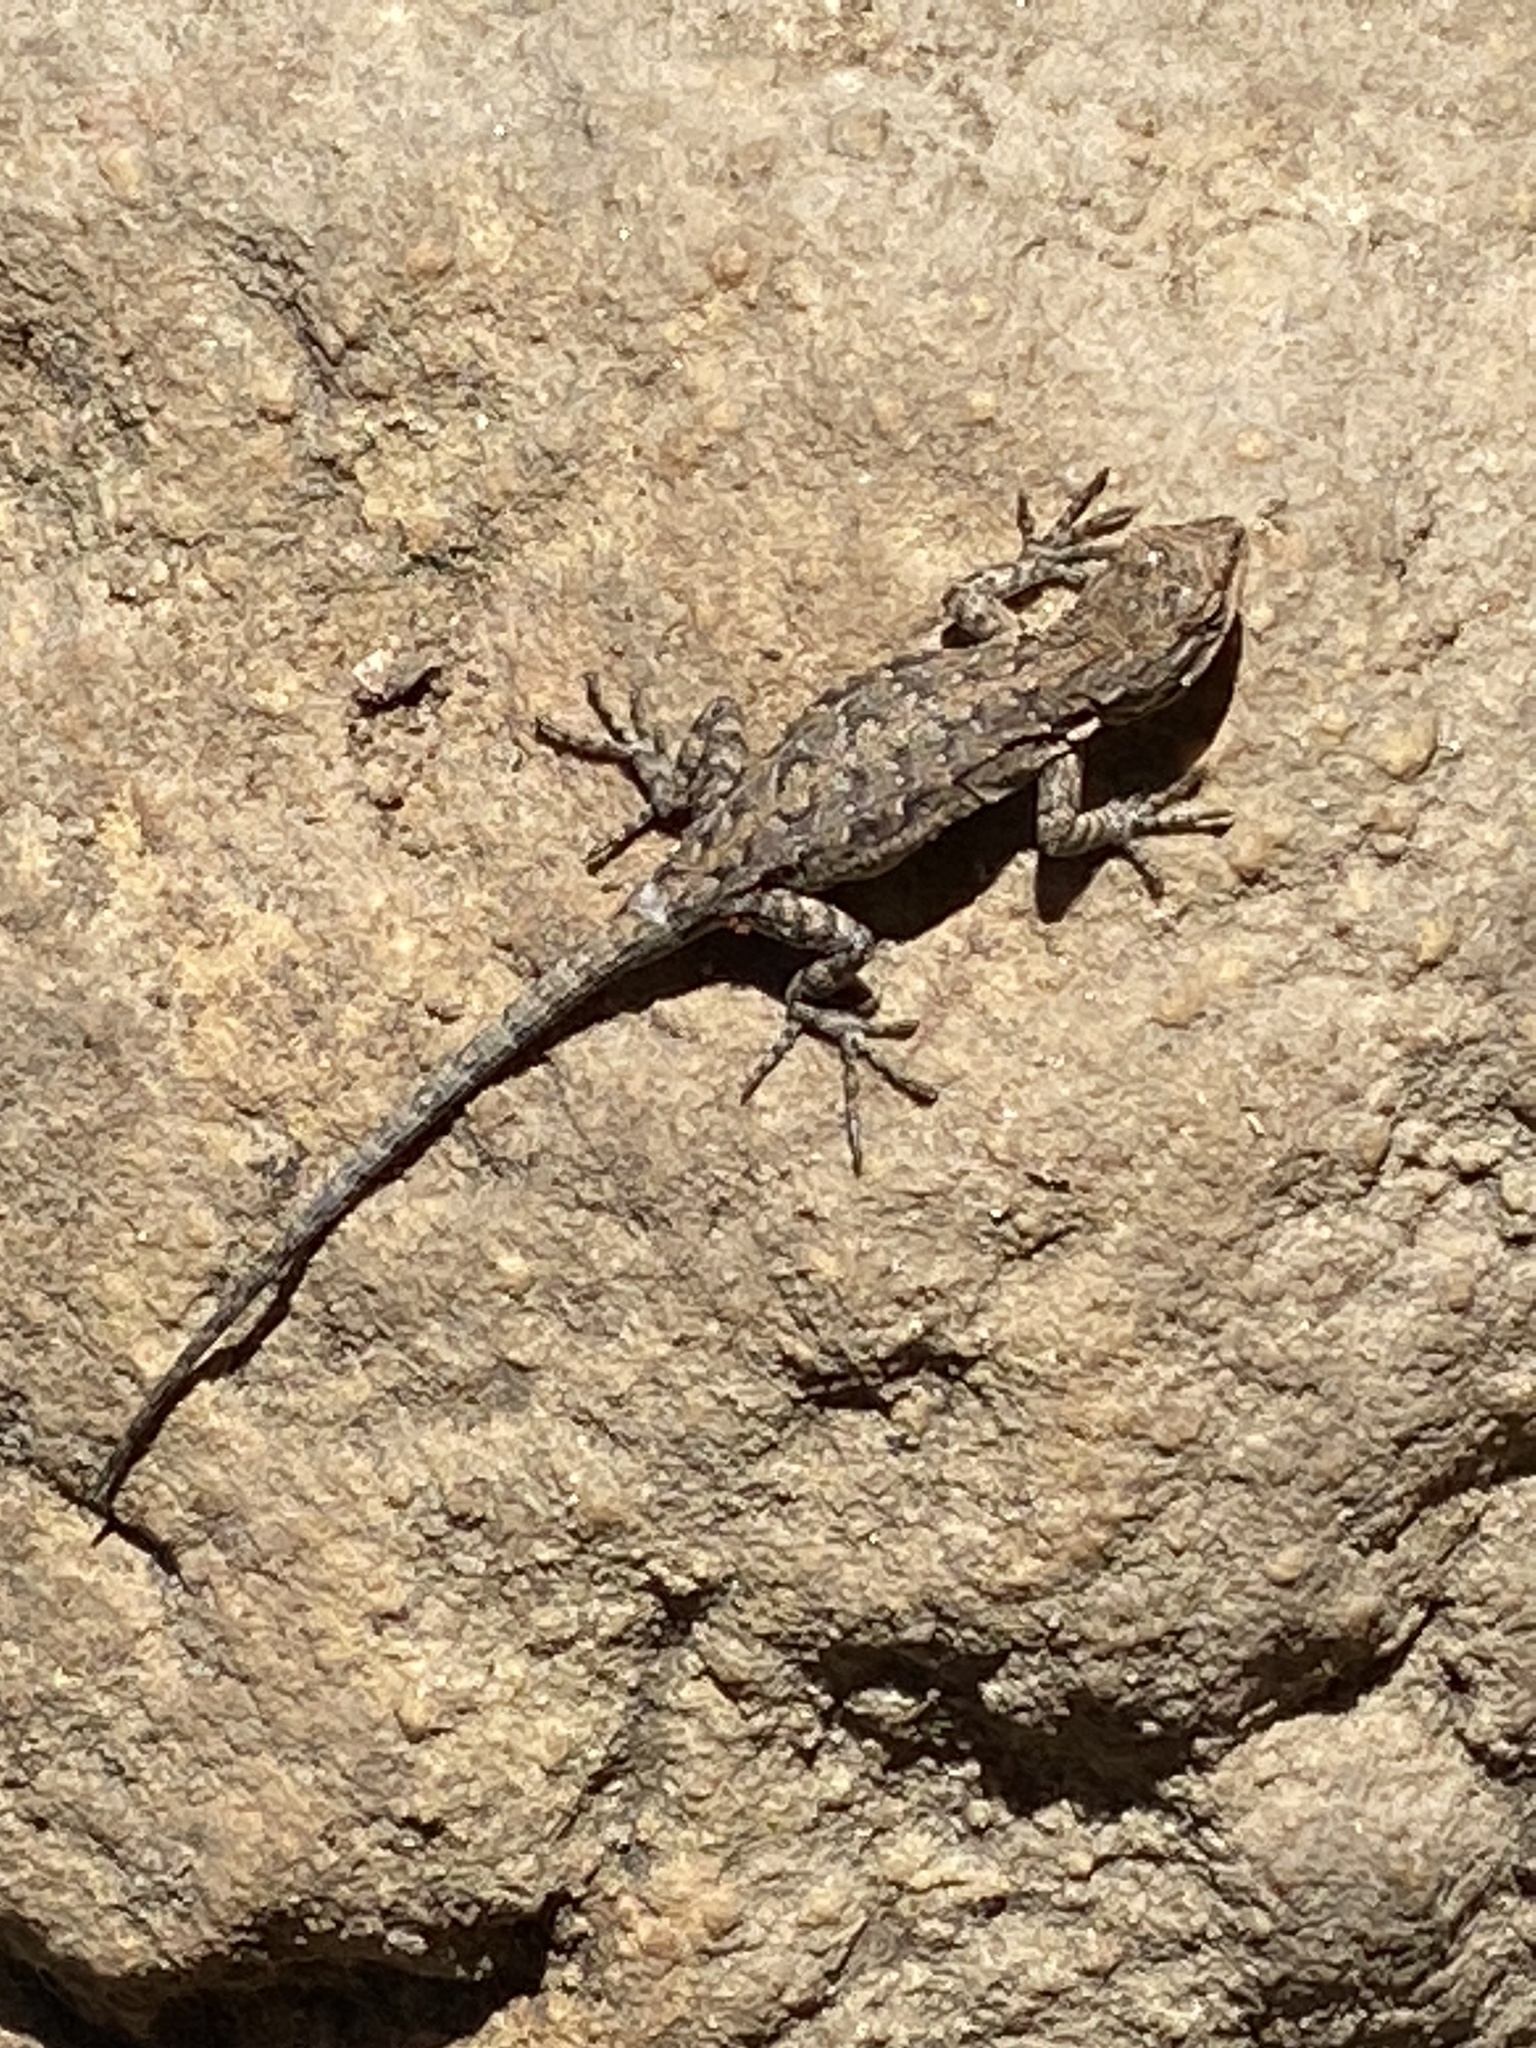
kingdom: Animalia
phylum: Chordata
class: Squamata
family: Phrynosomatidae
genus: Urosaurus
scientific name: Urosaurus ornatus
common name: Ornate tree lizard
